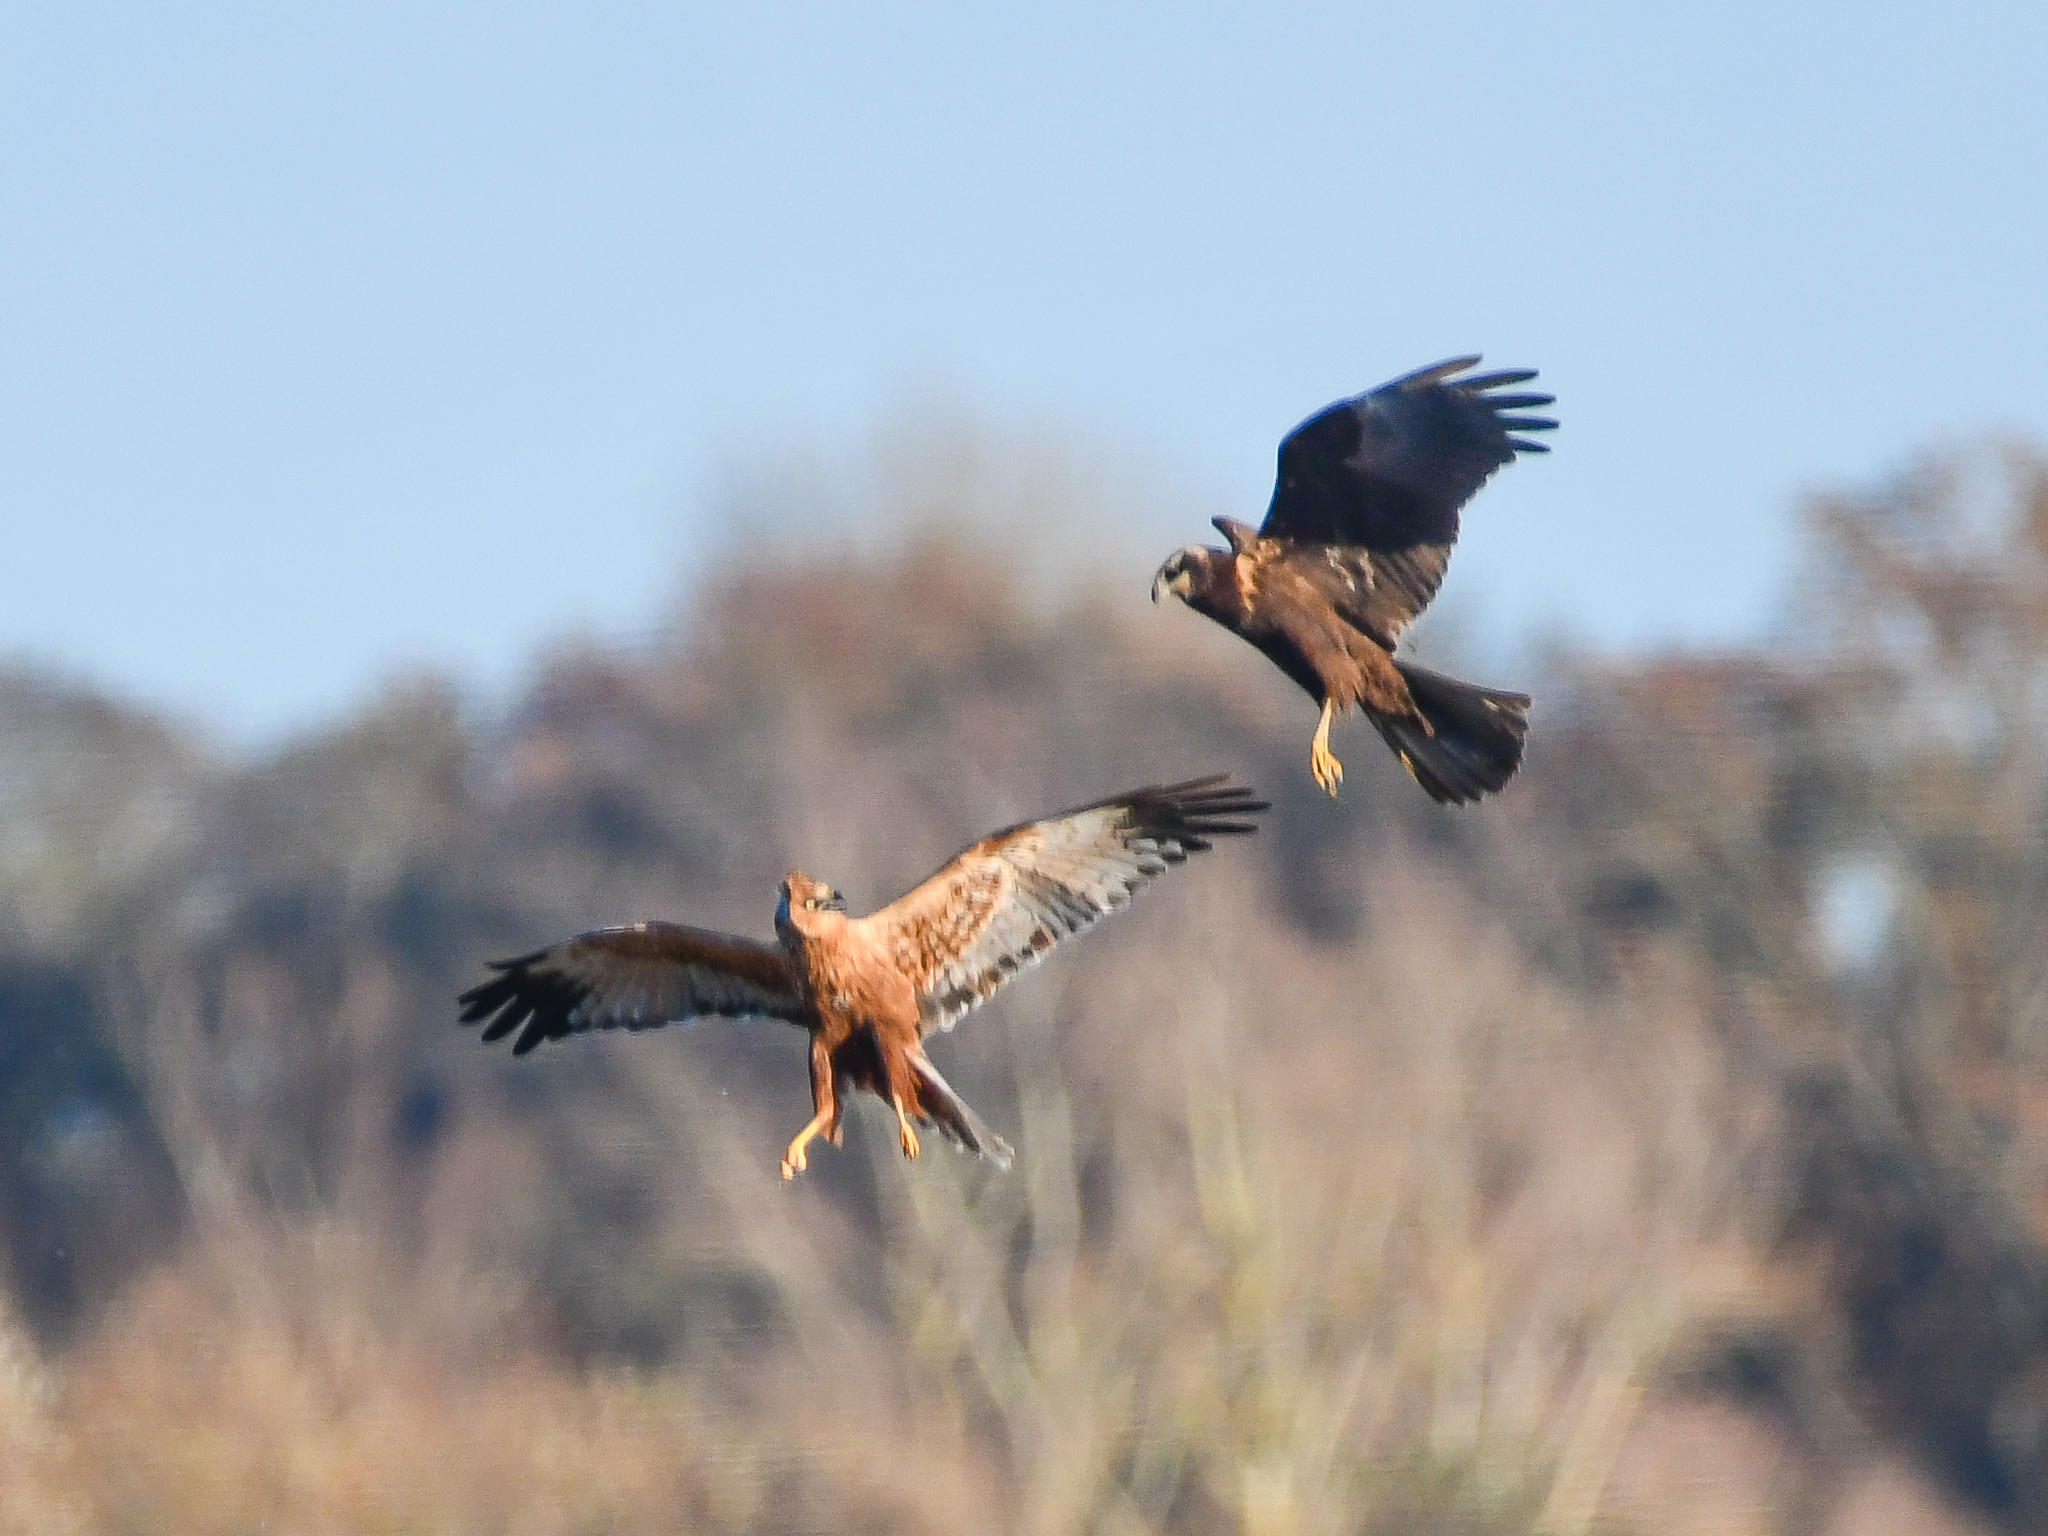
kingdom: Animalia
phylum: Chordata
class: Aves
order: Accipitriformes
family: Accipitridae
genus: Circus
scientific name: Circus aeruginosus
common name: Western marsh harrier
